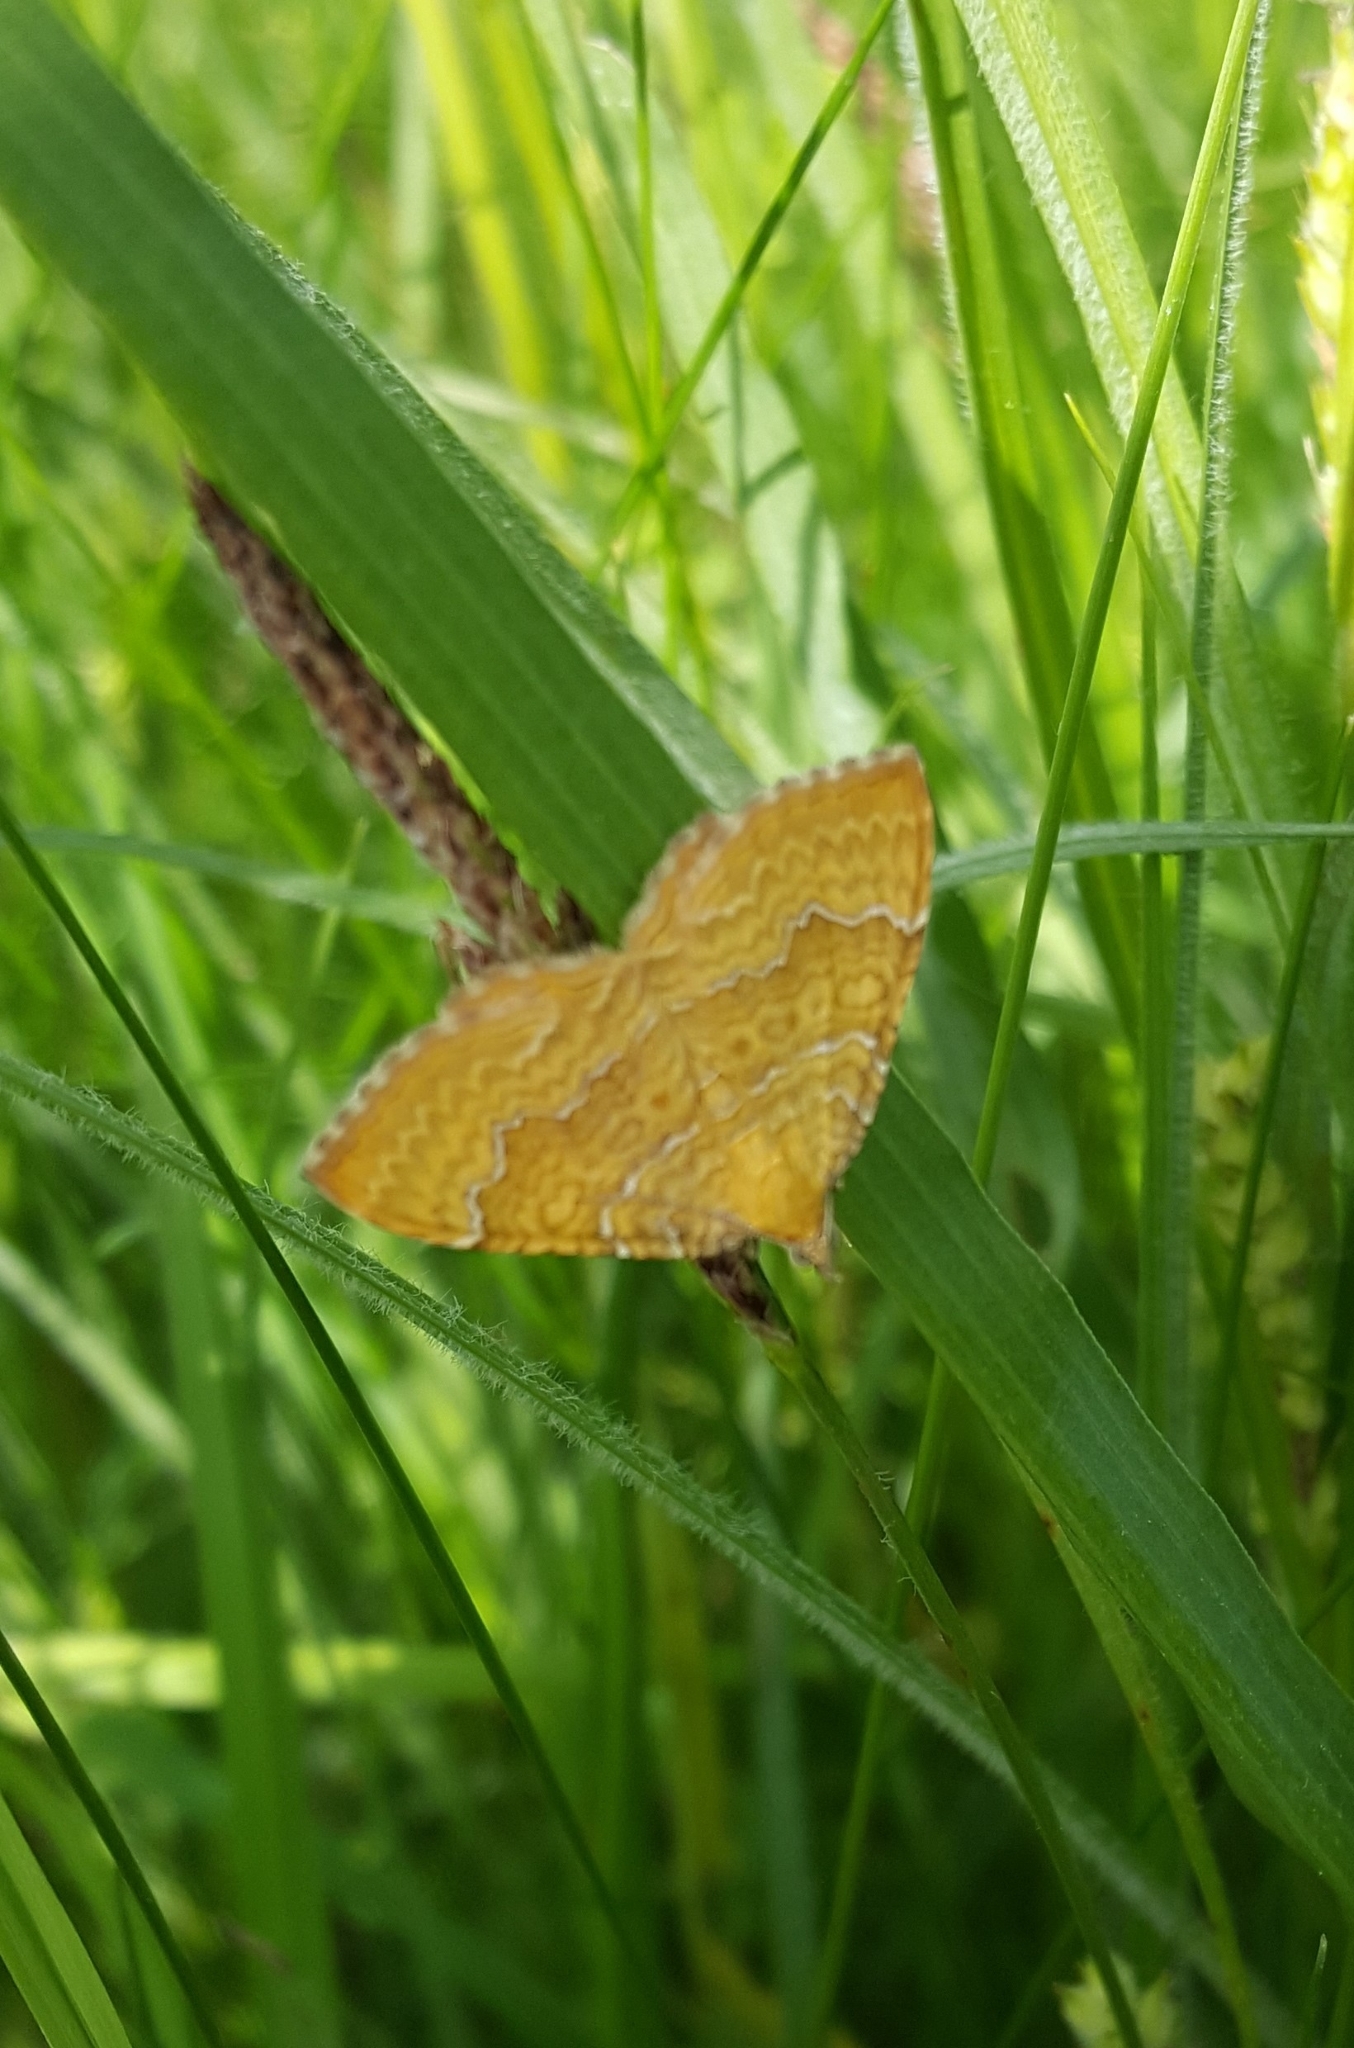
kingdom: Animalia
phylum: Arthropoda
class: Insecta
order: Lepidoptera
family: Geometridae
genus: Camptogramma
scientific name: Camptogramma bilineata
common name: Yellow shell
